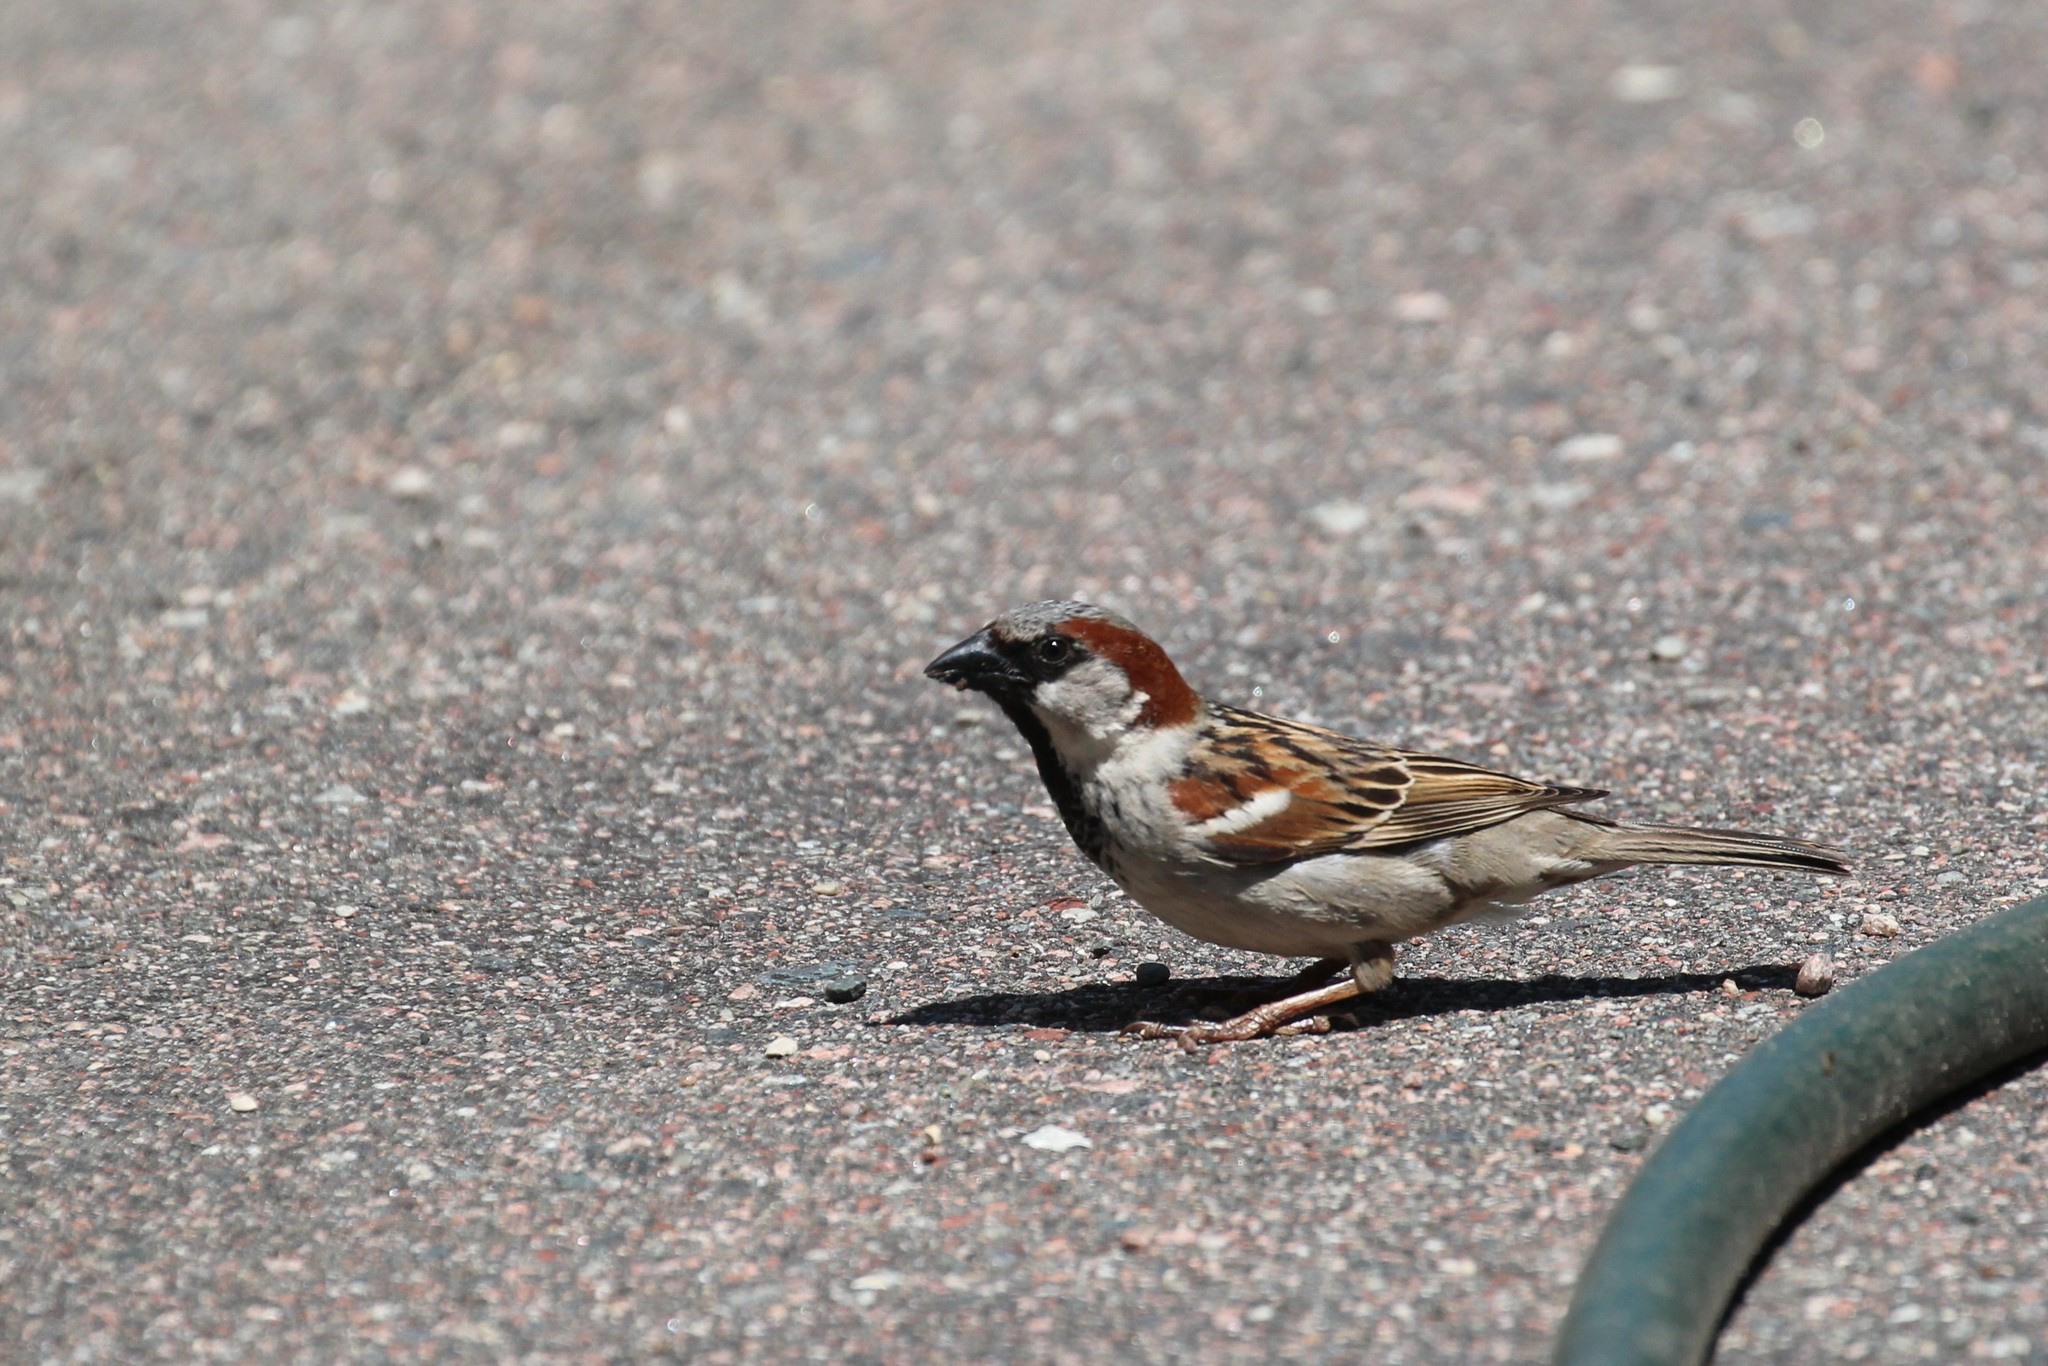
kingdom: Animalia
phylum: Chordata
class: Aves
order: Passeriformes
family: Passeridae
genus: Passer
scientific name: Passer domesticus
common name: House sparrow
